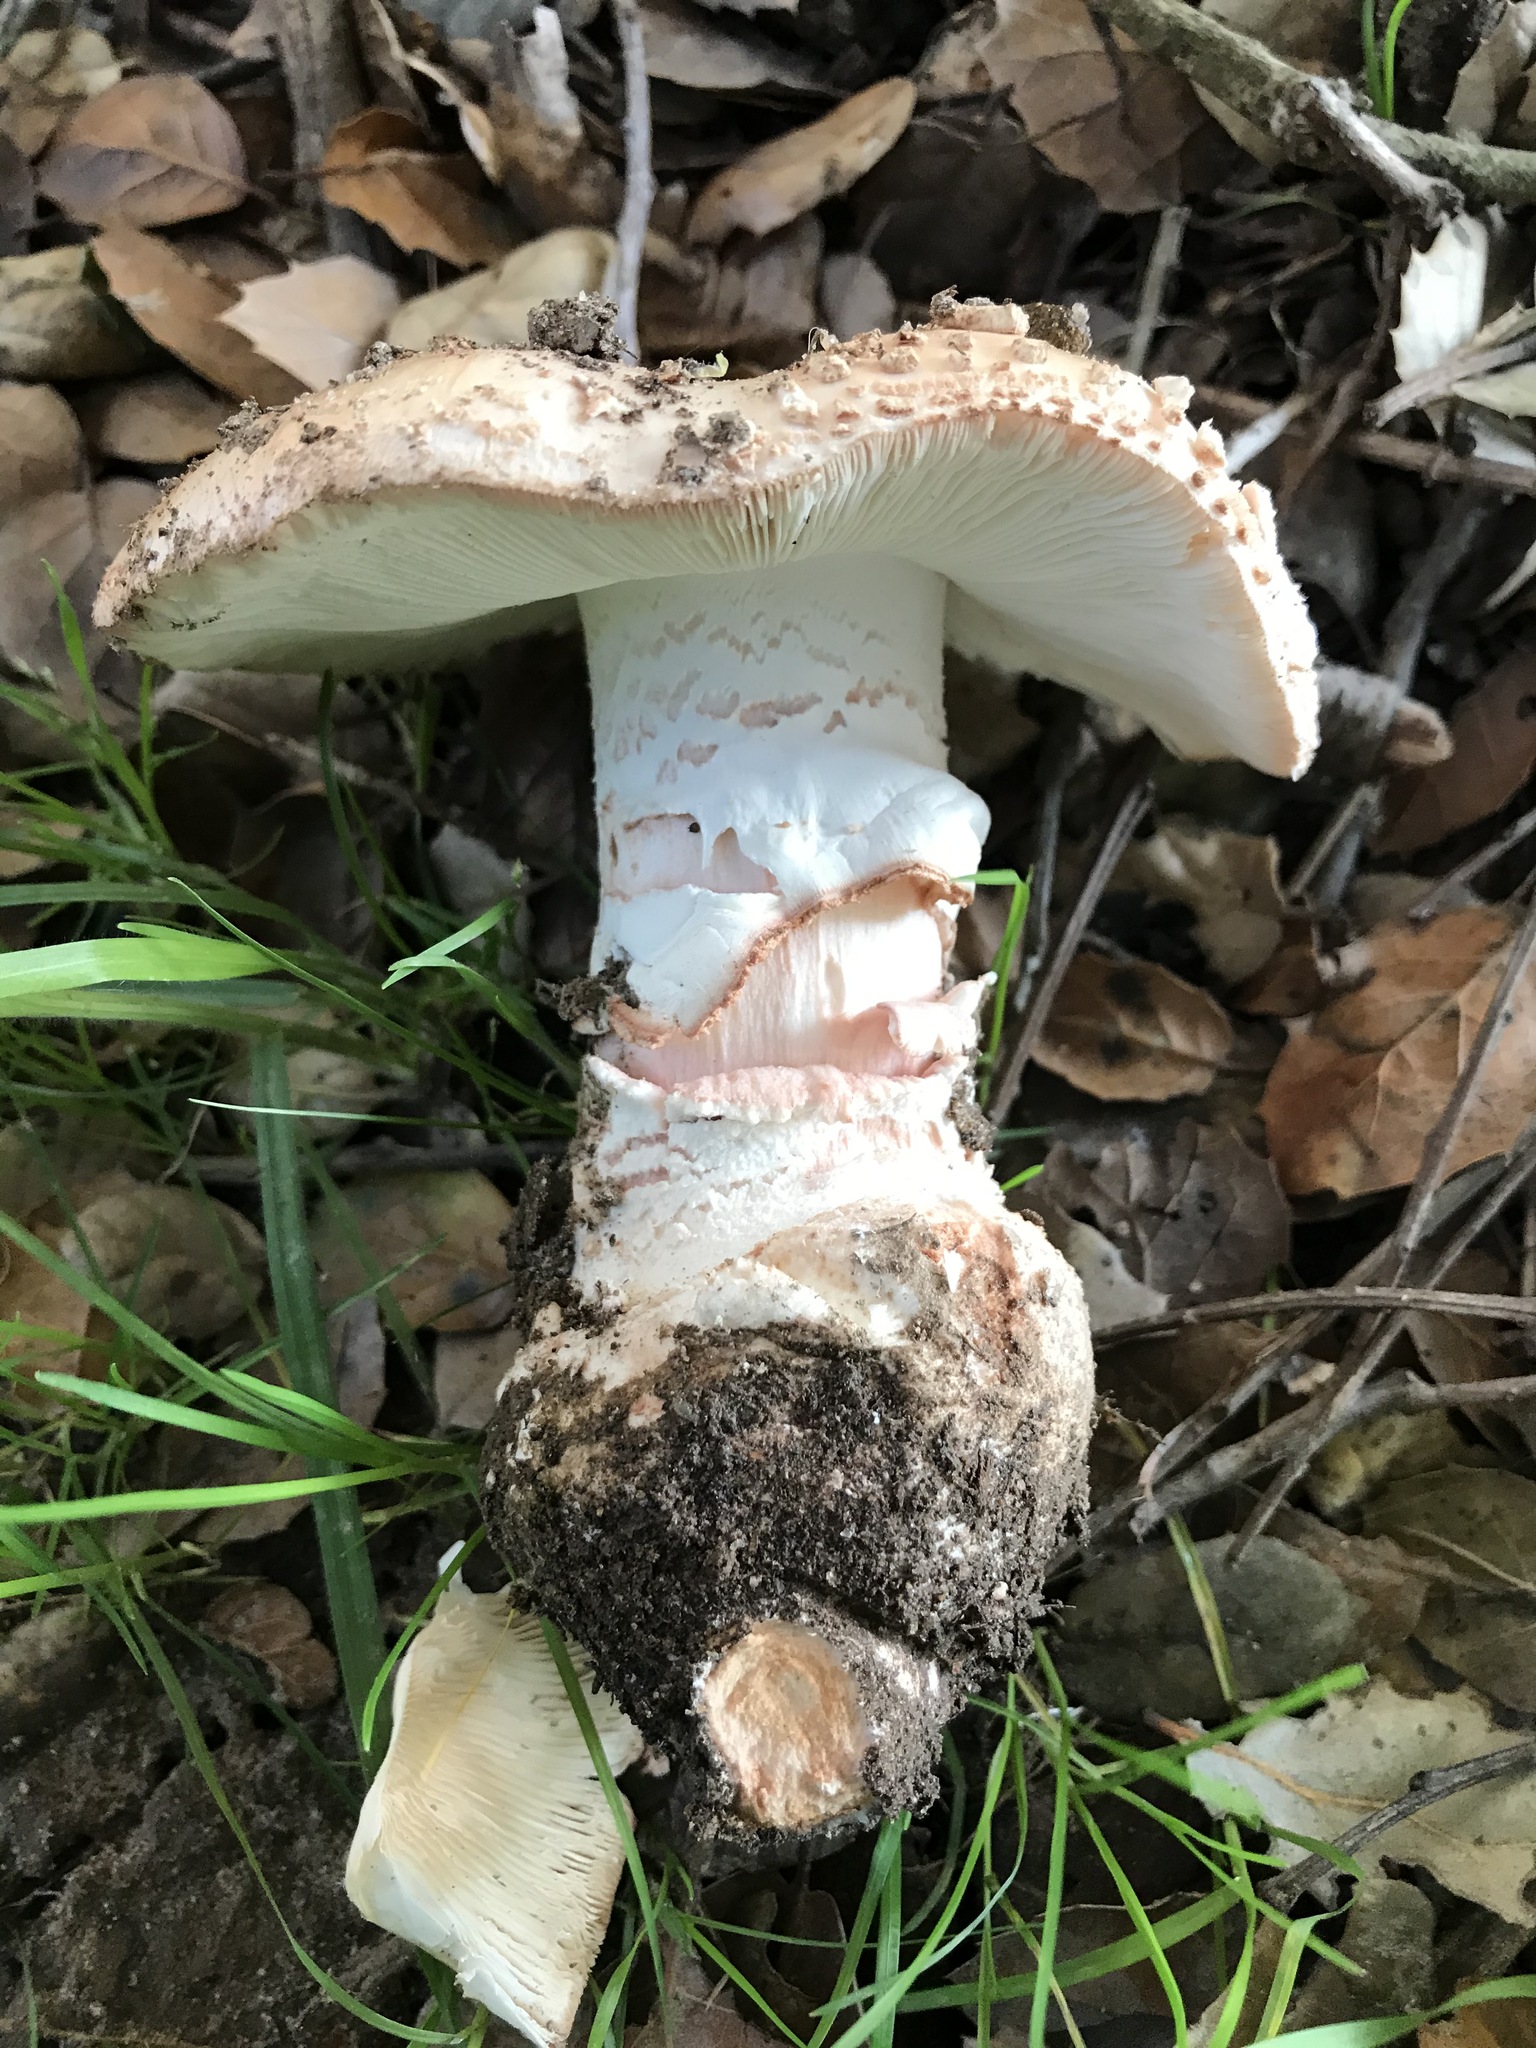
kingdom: Fungi
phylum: Basidiomycota
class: Agaricomycetes
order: Agaricales
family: Amanitaceae
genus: Amanita
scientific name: Amanita novinupta
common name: Blushing bride
